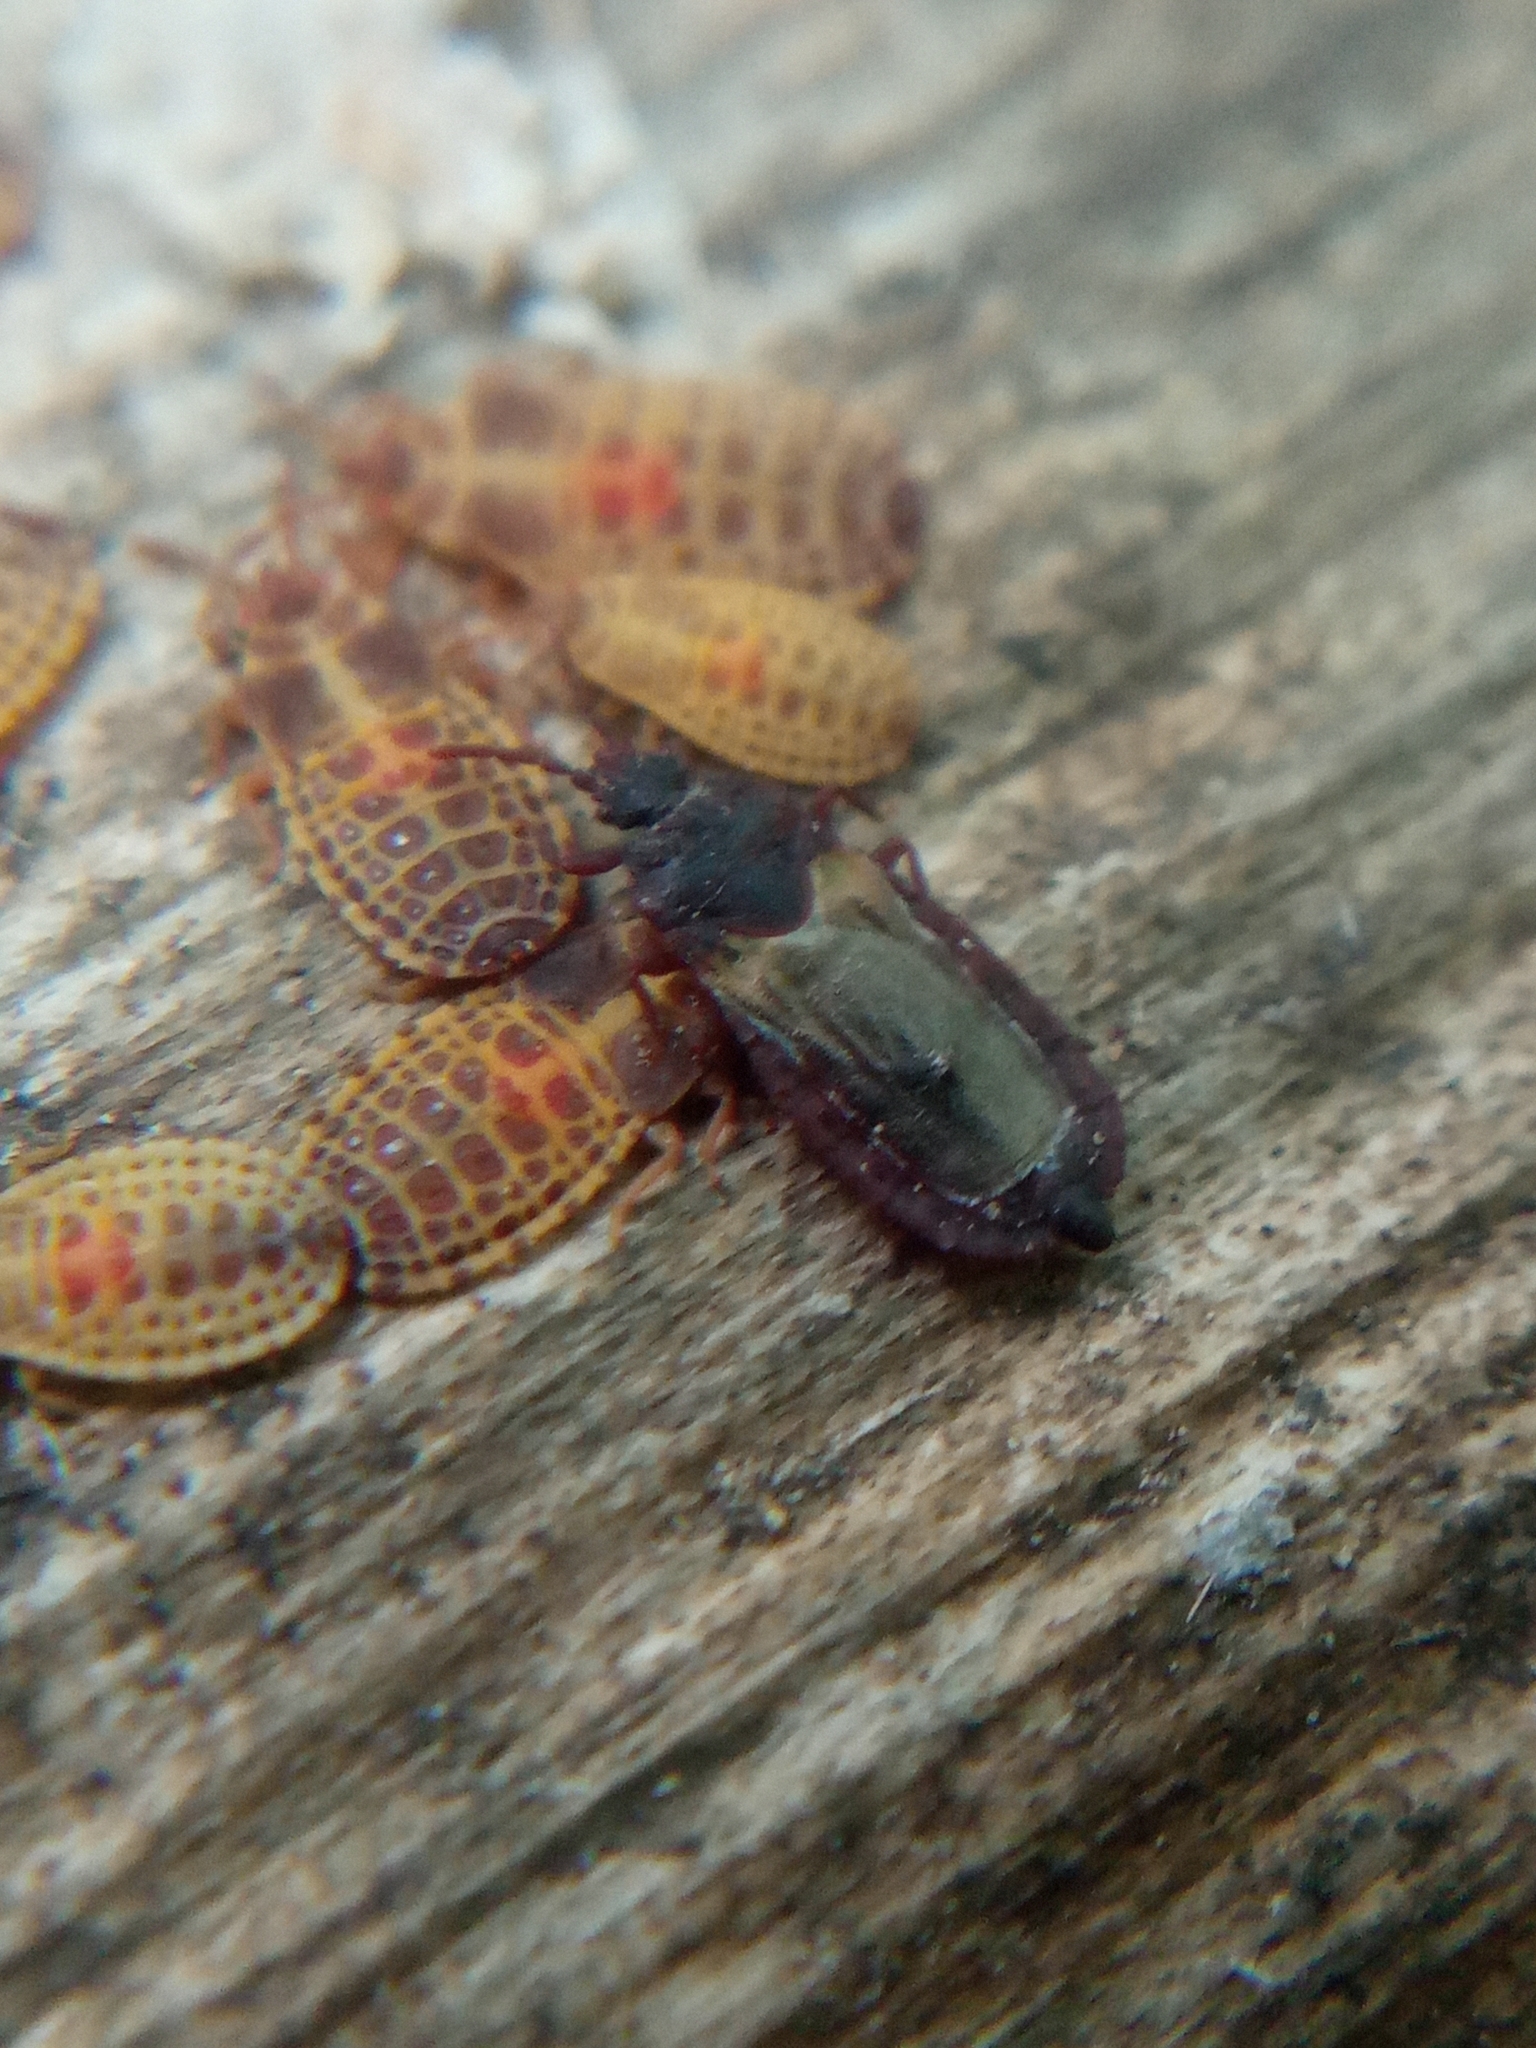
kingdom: Animalia
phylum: Arthropoda
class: Insecta
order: Hemiptera
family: Aradidae
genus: Aneurus
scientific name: Aneurus laevis
